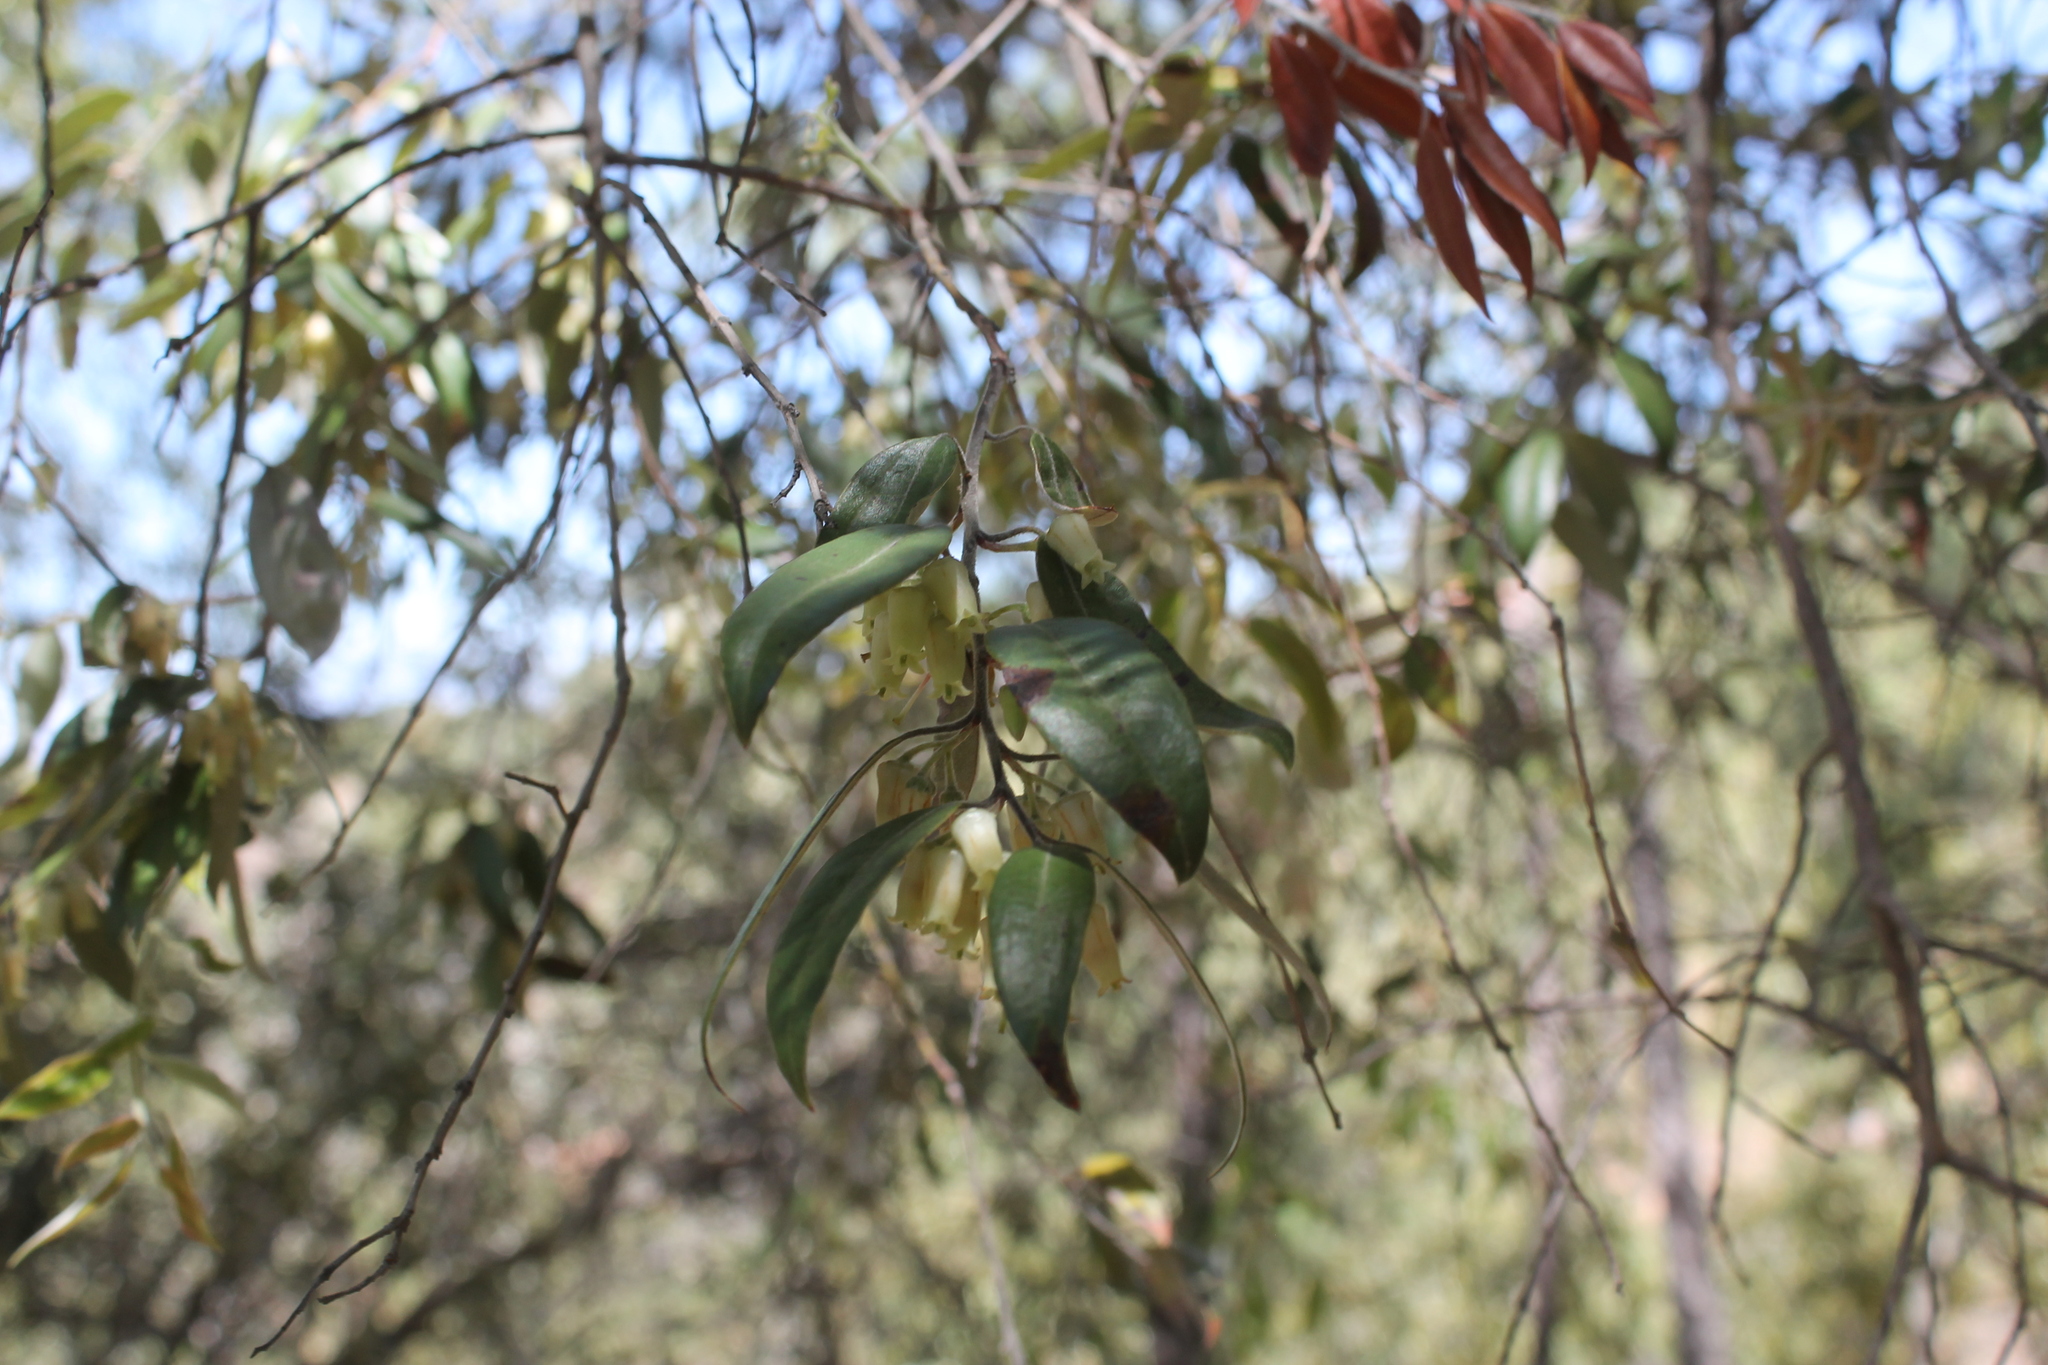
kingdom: Plantae
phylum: Tracheophyta
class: Magnoliopsida
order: Ericales
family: Ericaceae
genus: Agarista
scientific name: Agarista mexicana
